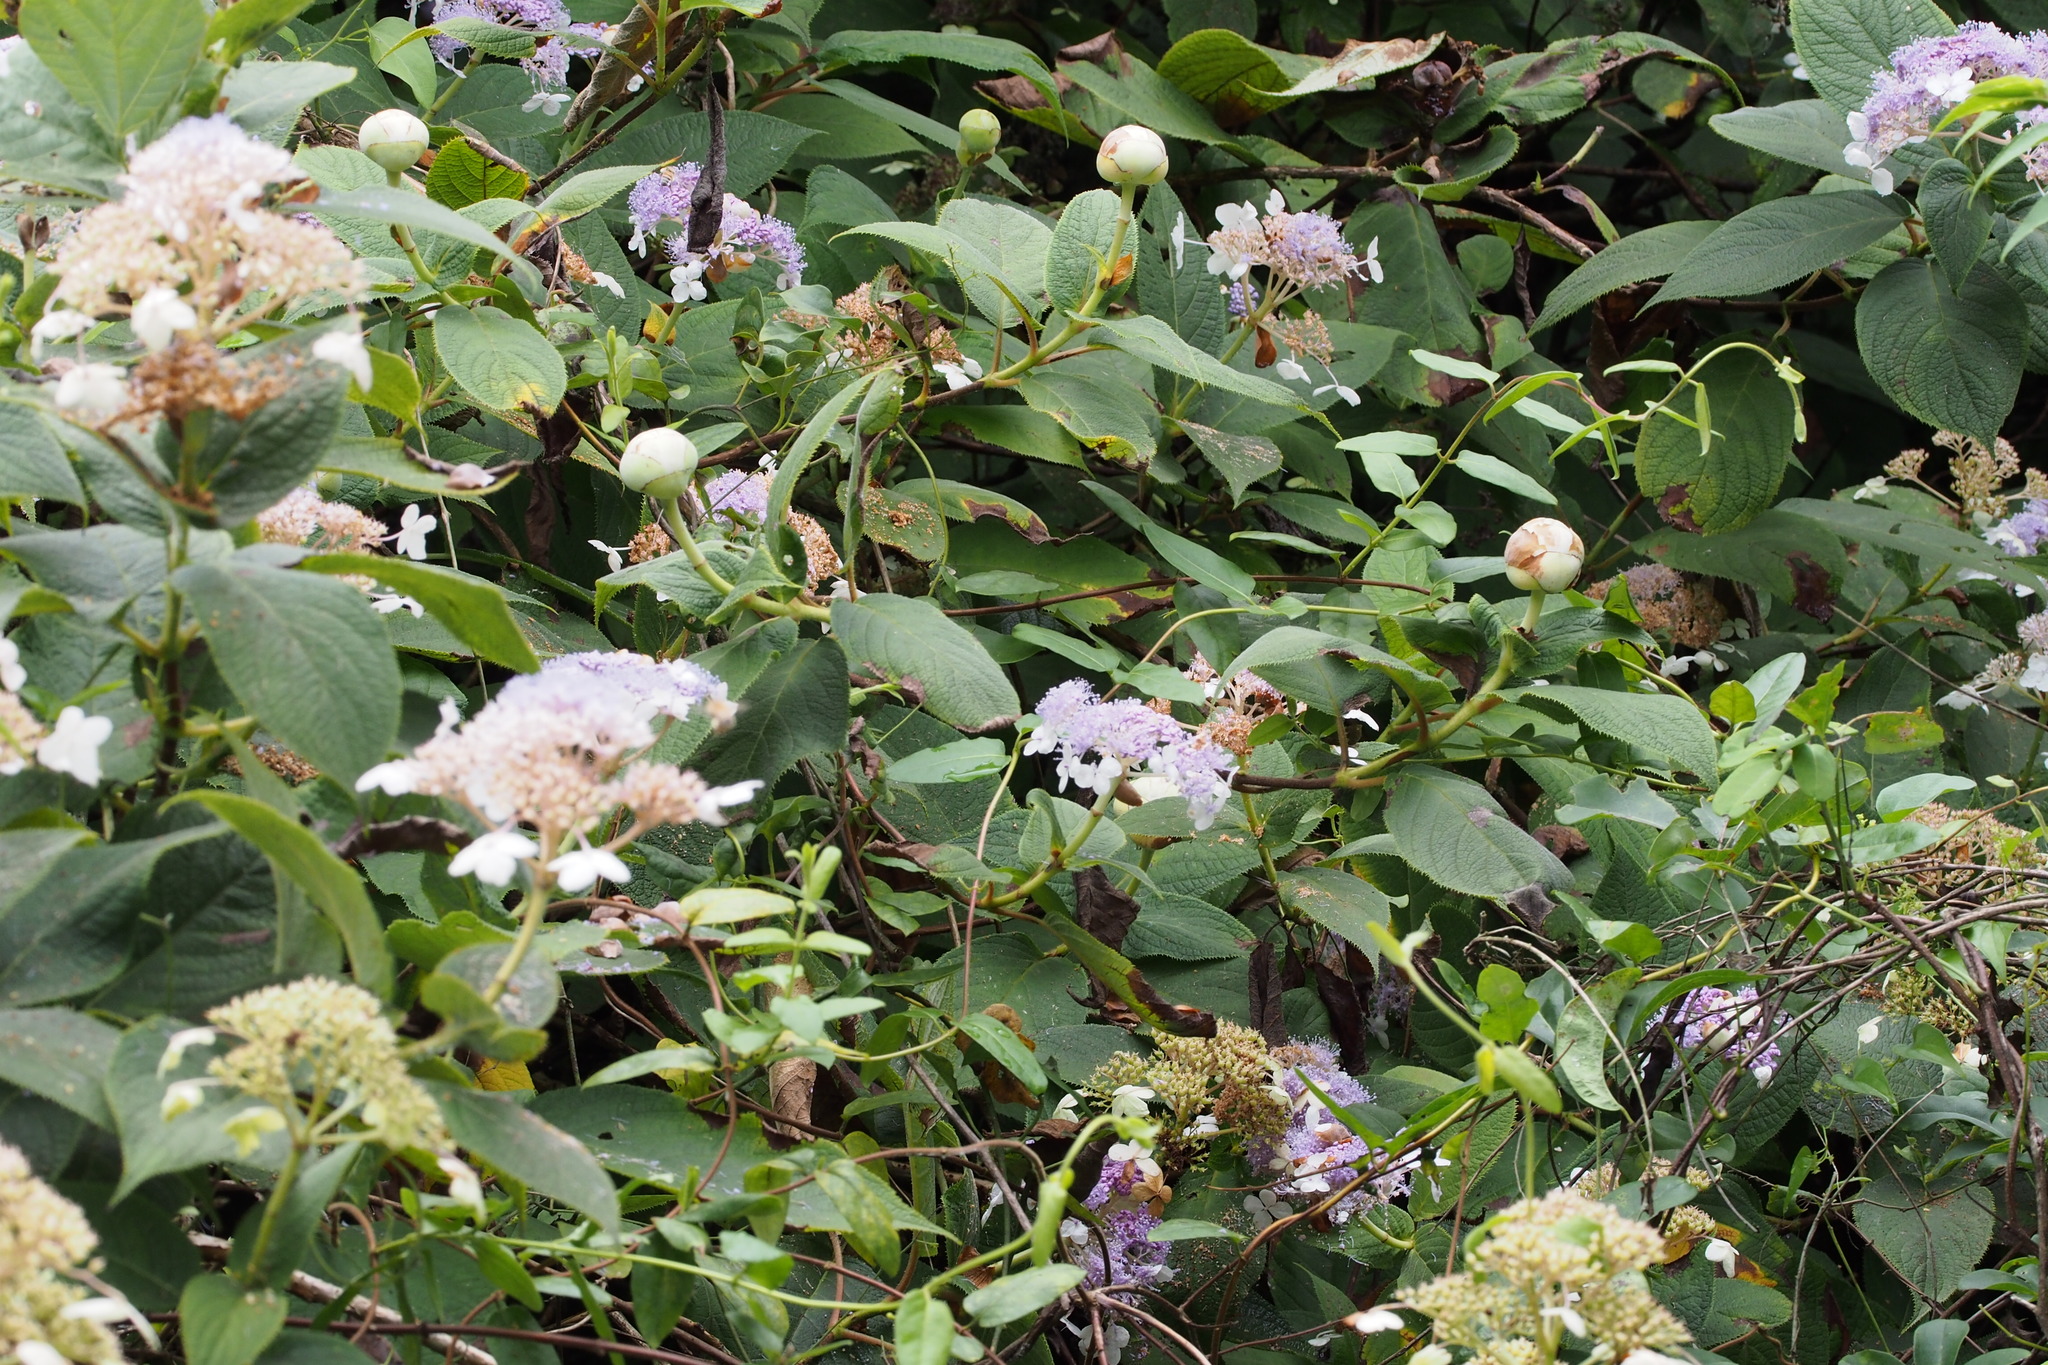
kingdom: Plantae
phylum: Tracheophyta
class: Magnoliopsida
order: Cornales
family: Hydrangeaceae
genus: Hydrangea
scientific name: Hydrangea involucrata
